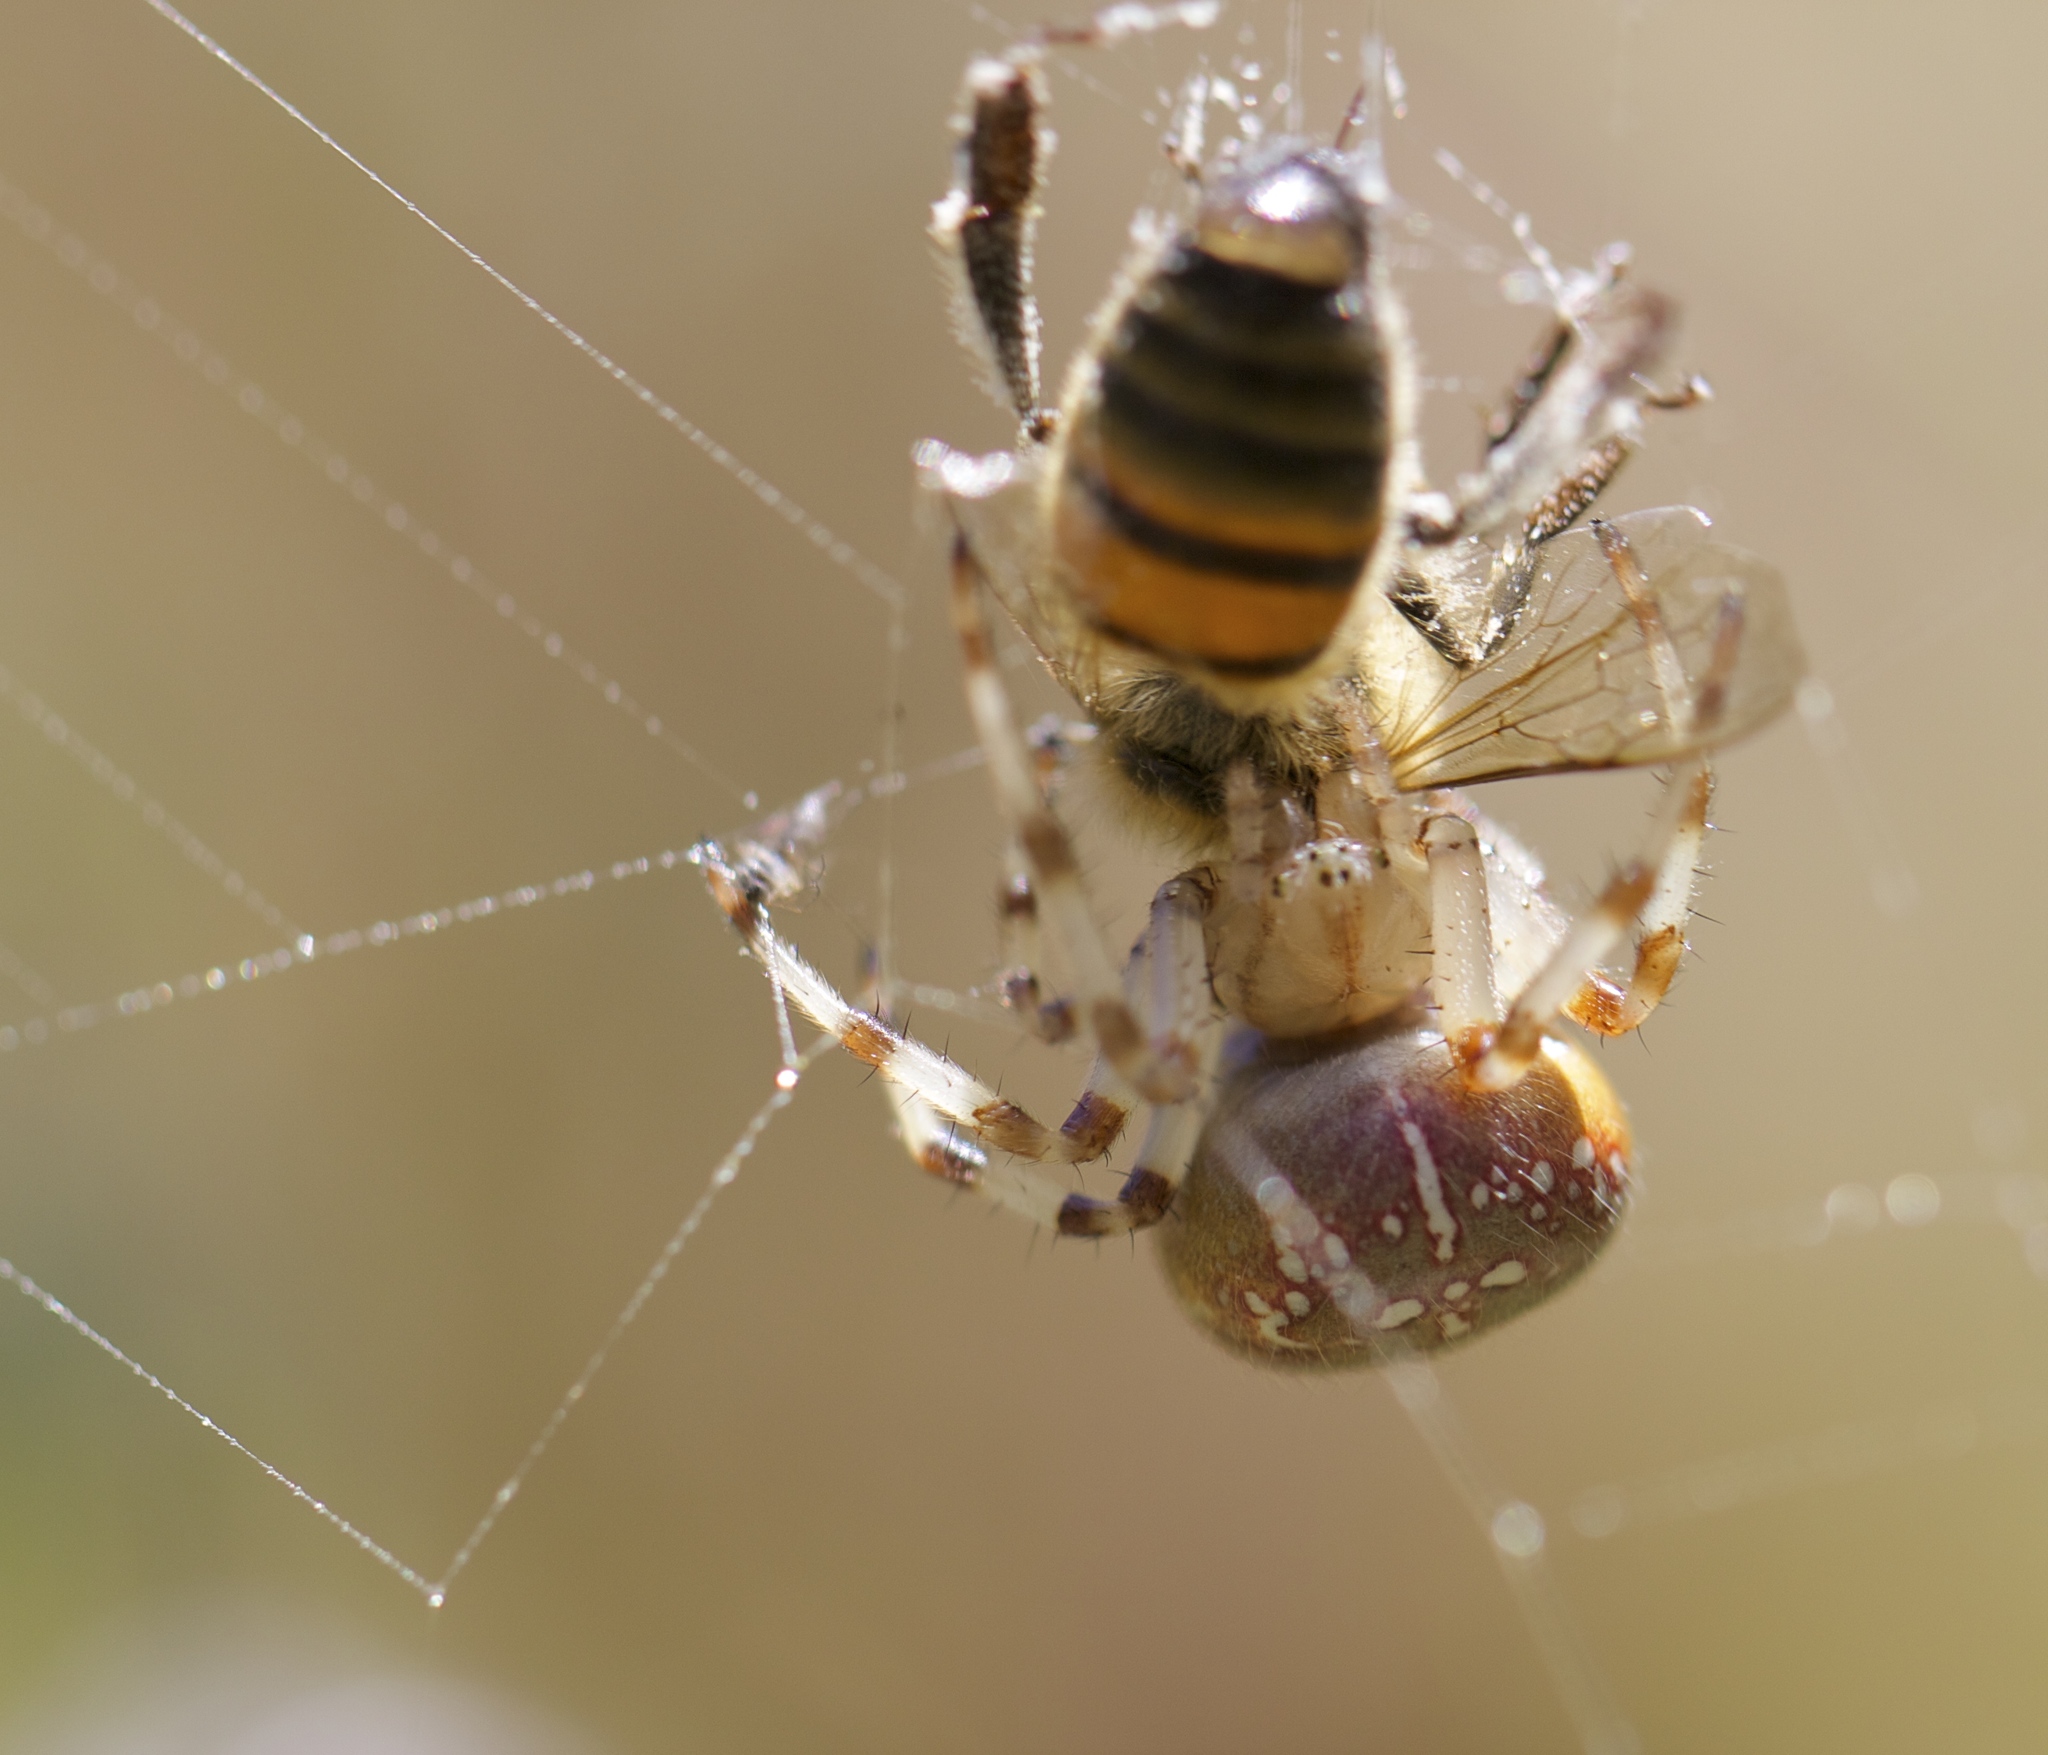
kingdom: Animalia
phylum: Arthropoda
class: Arachnida
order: Araneae
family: Araneidae
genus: Araneus
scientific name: Araneus trifolium
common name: Shamrock orbweaver
